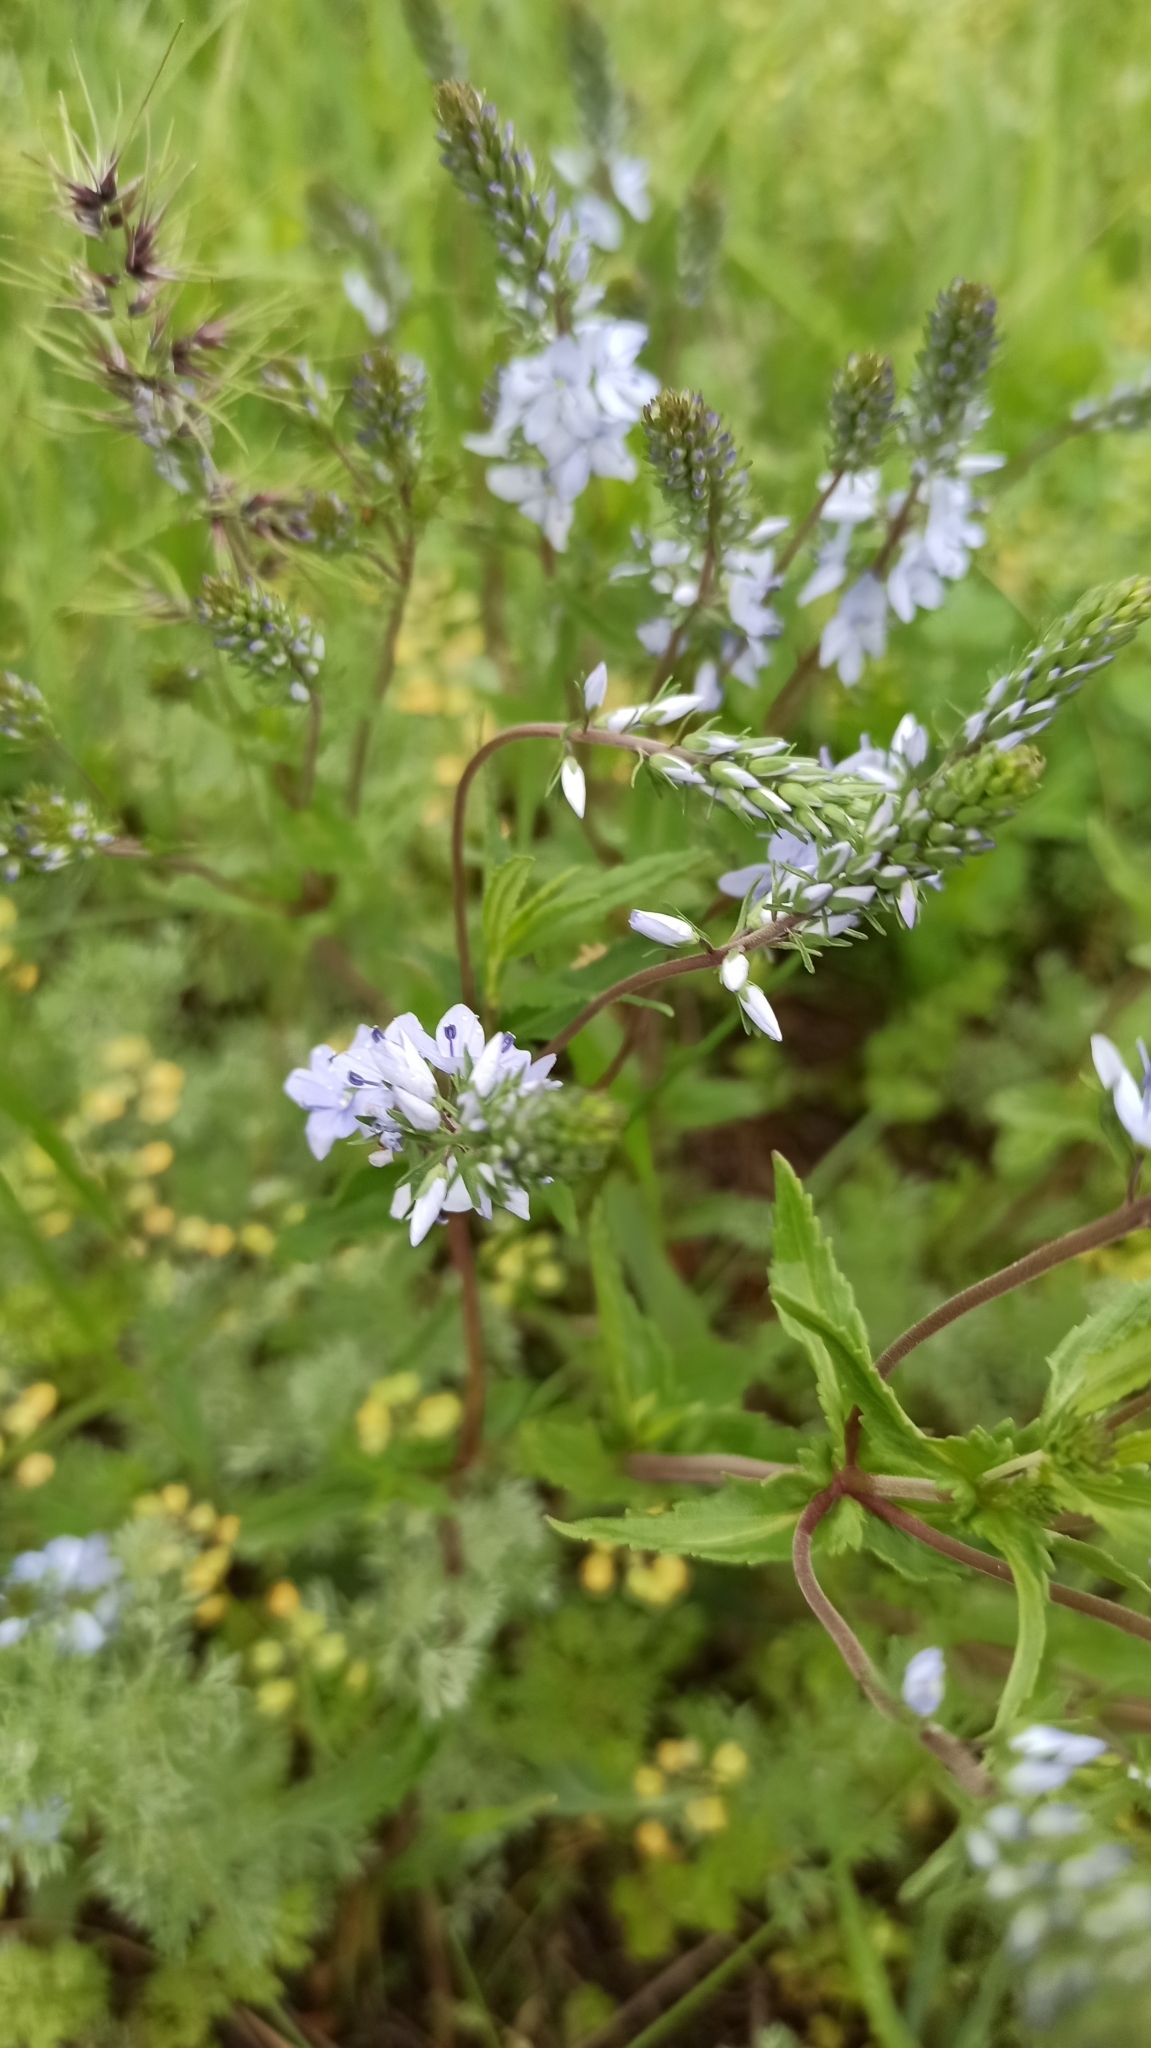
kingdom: Plantae
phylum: Tracheophyta
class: Magnoliopsida
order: Lamiales
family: Plantaginaceae
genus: Veronica
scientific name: Veronica prostrata
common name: Prostrate speedwell
